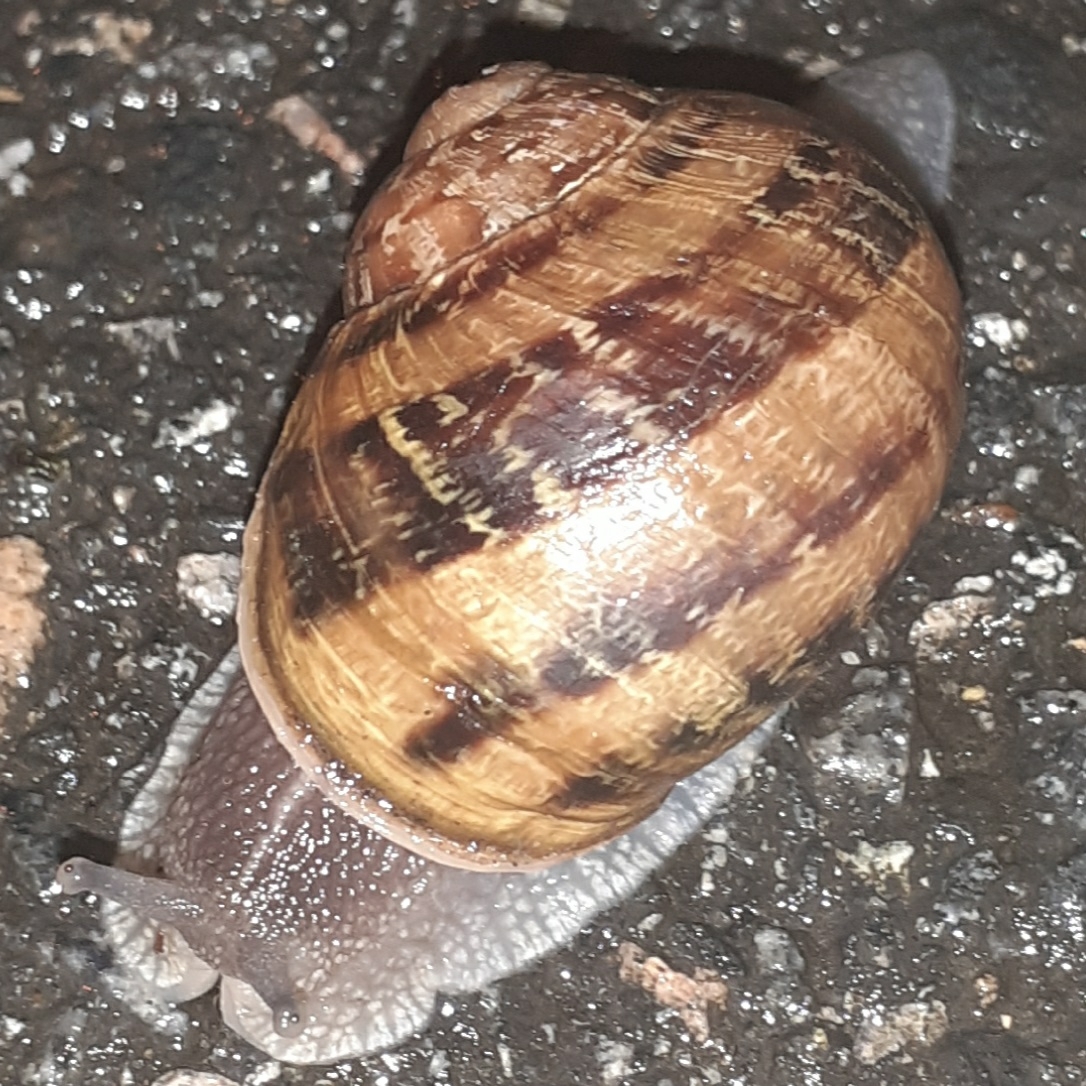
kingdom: Animalia
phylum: Mollusca
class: Gastropoda
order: Stylommatophora
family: Helicidae
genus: Cornu
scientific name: Cornu aspersum
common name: Brown garden snail
